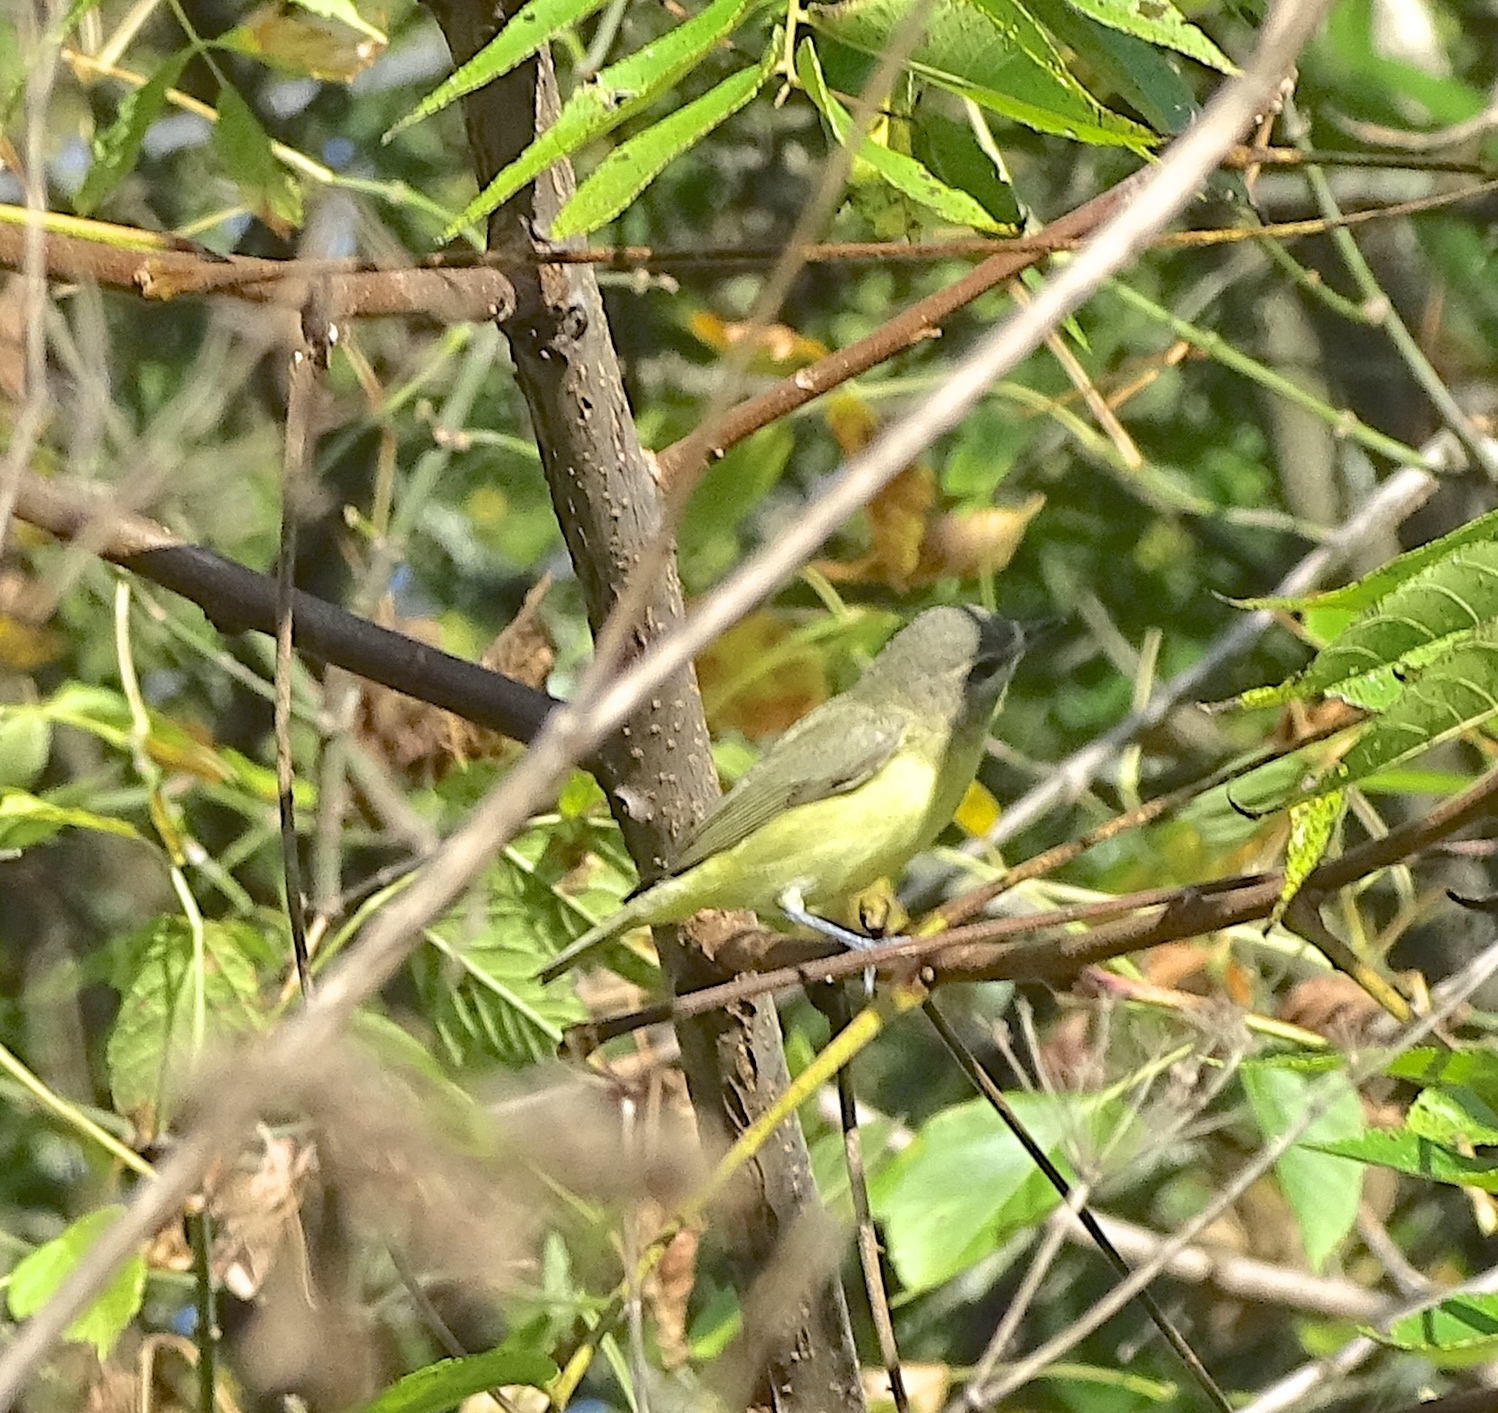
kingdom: Animalia
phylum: Chordata
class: Aves
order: Passeriformes
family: Vireonidae
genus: Vireo
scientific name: Vireo philadelphicus
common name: Philadelphia vireo
